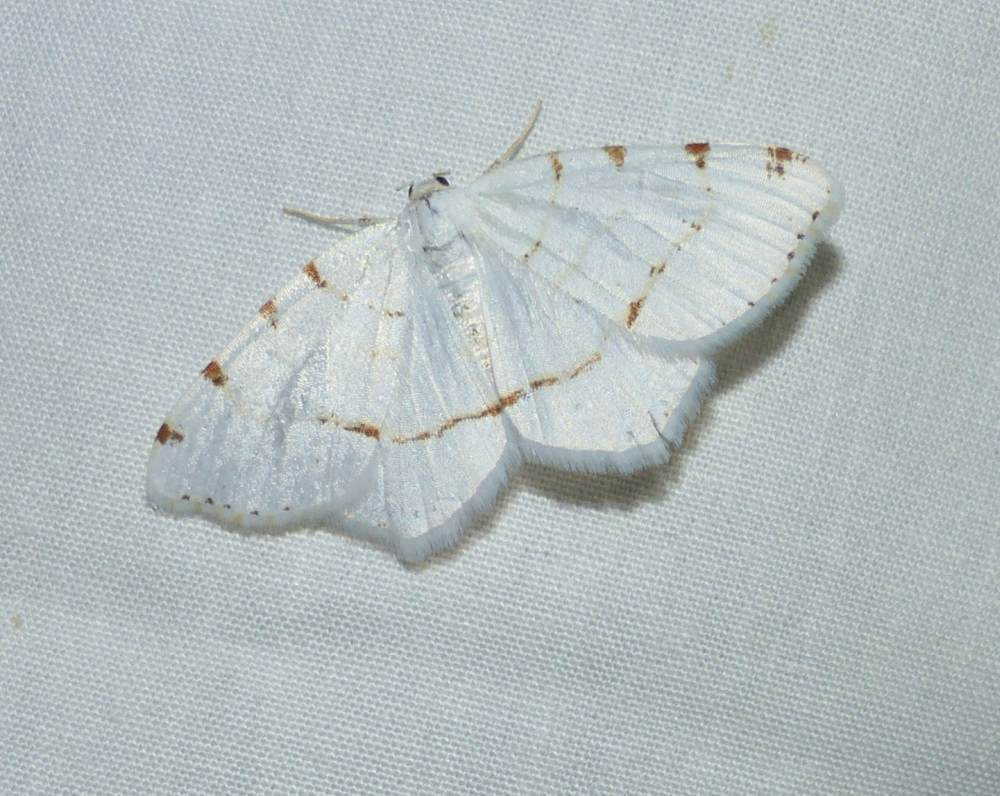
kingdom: Animalia
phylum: Arthropoda
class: Insecta
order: Lepidoptera
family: Geometridae
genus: Macaria
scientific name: Macaria pustularia
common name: Lesser maple spanworm moth
